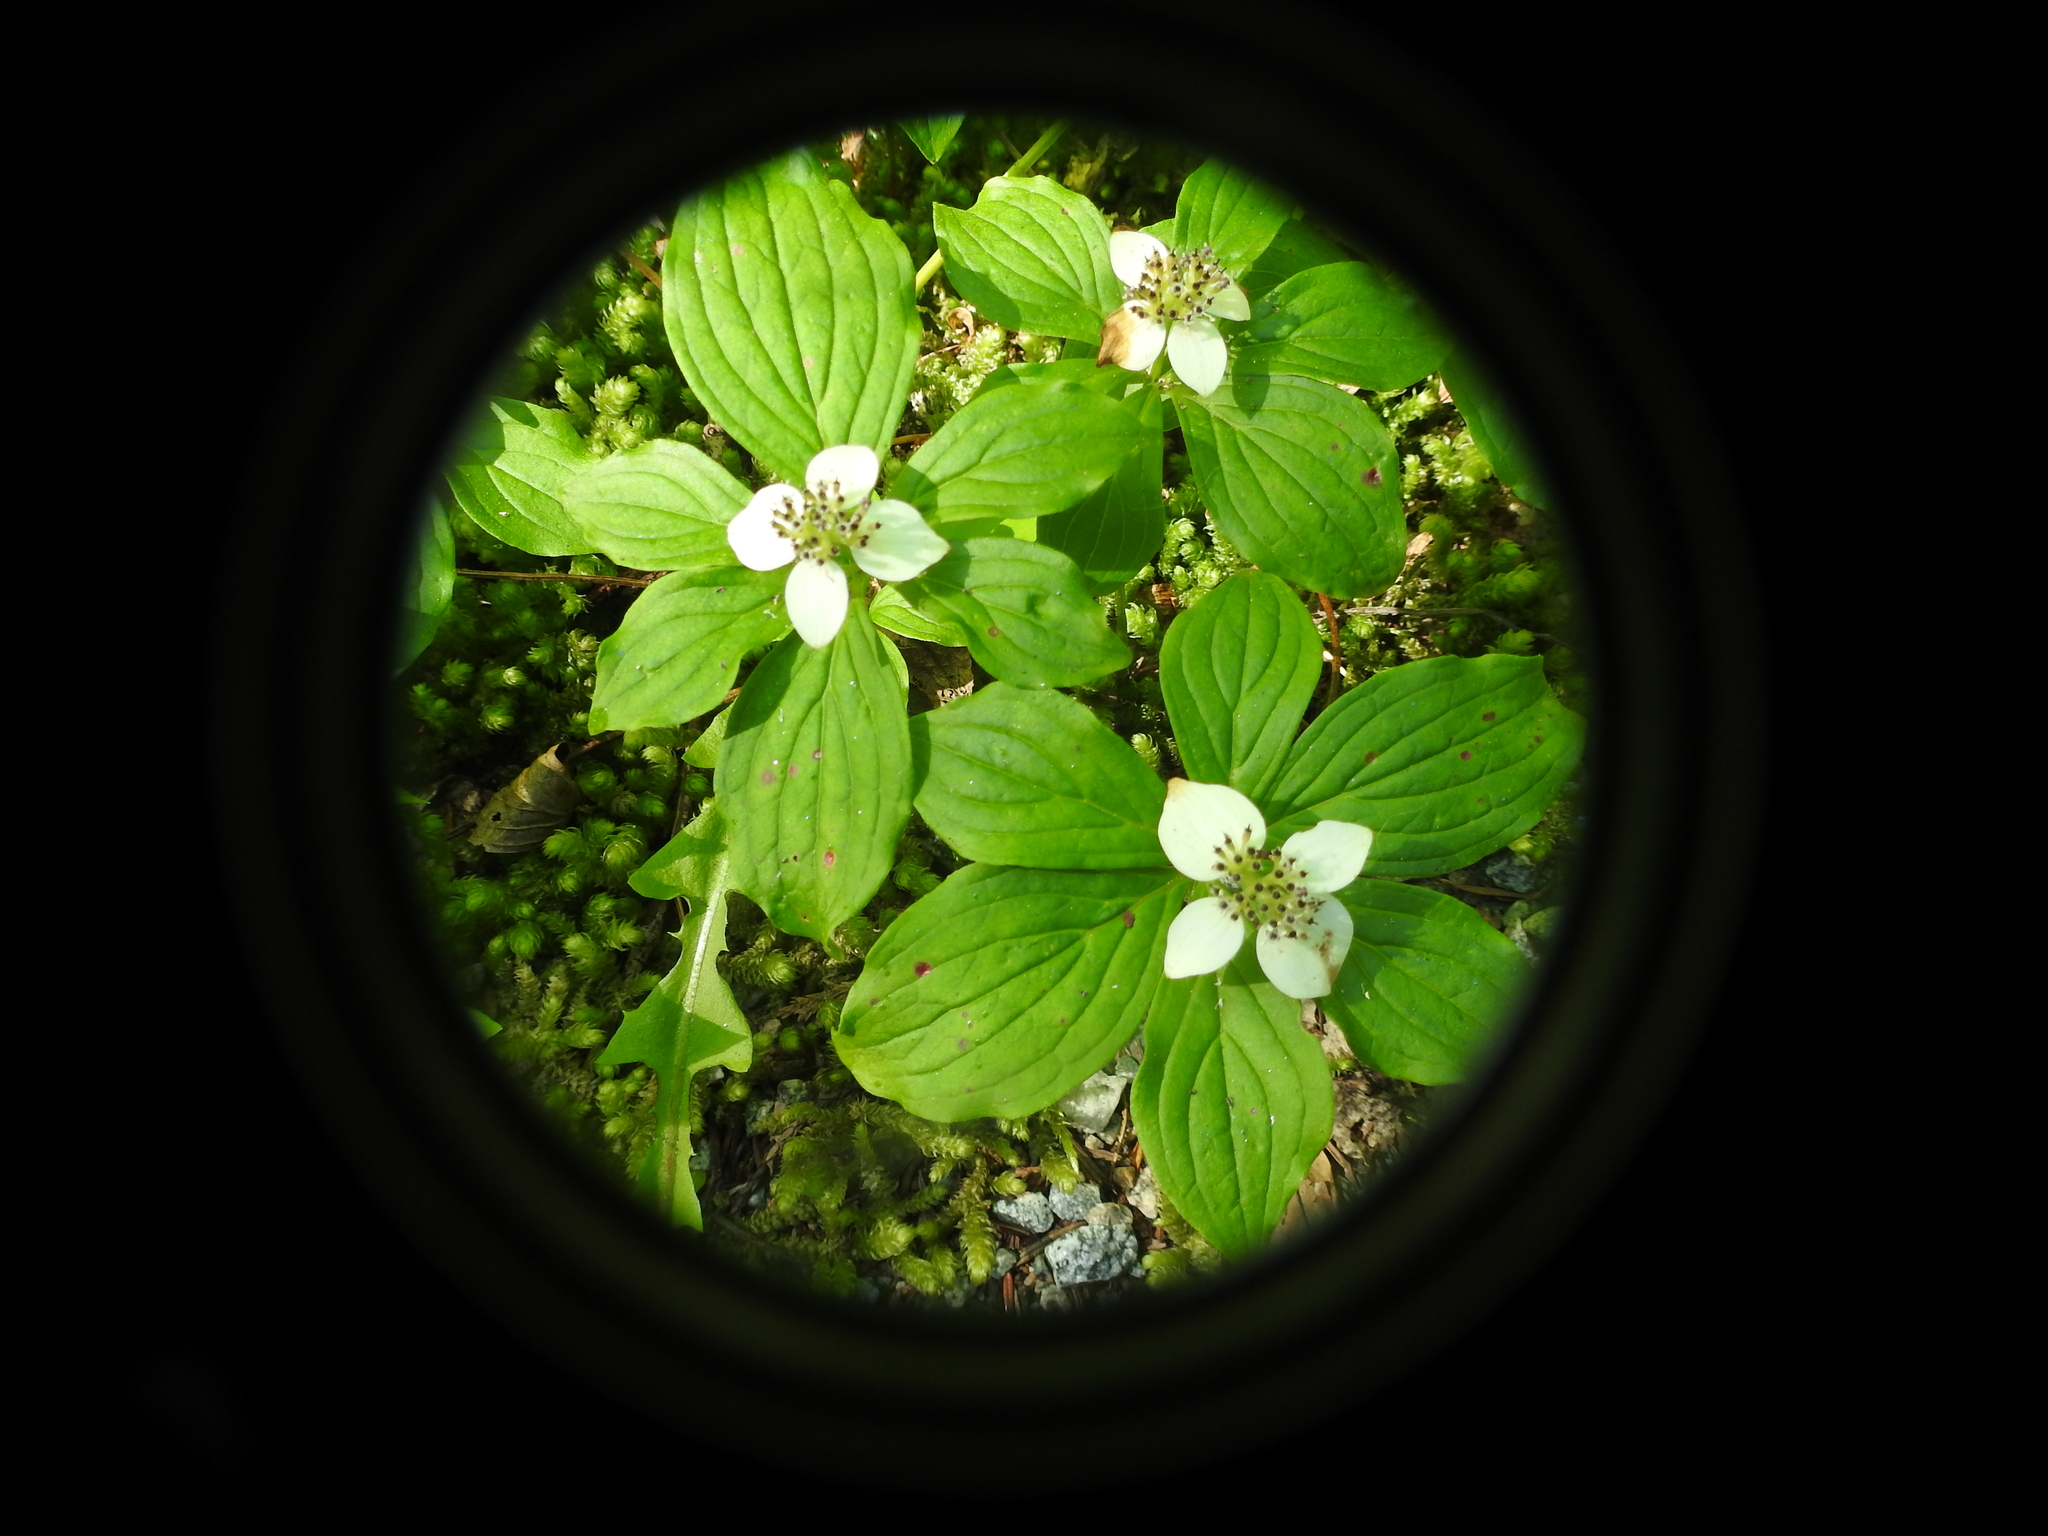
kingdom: Plantae
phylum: Tracheophyta
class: Magnoliopsida
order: Cornales
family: Cornaceae
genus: Cornus
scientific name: Cornus unalaschkensis
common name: Alaska bunchberry
